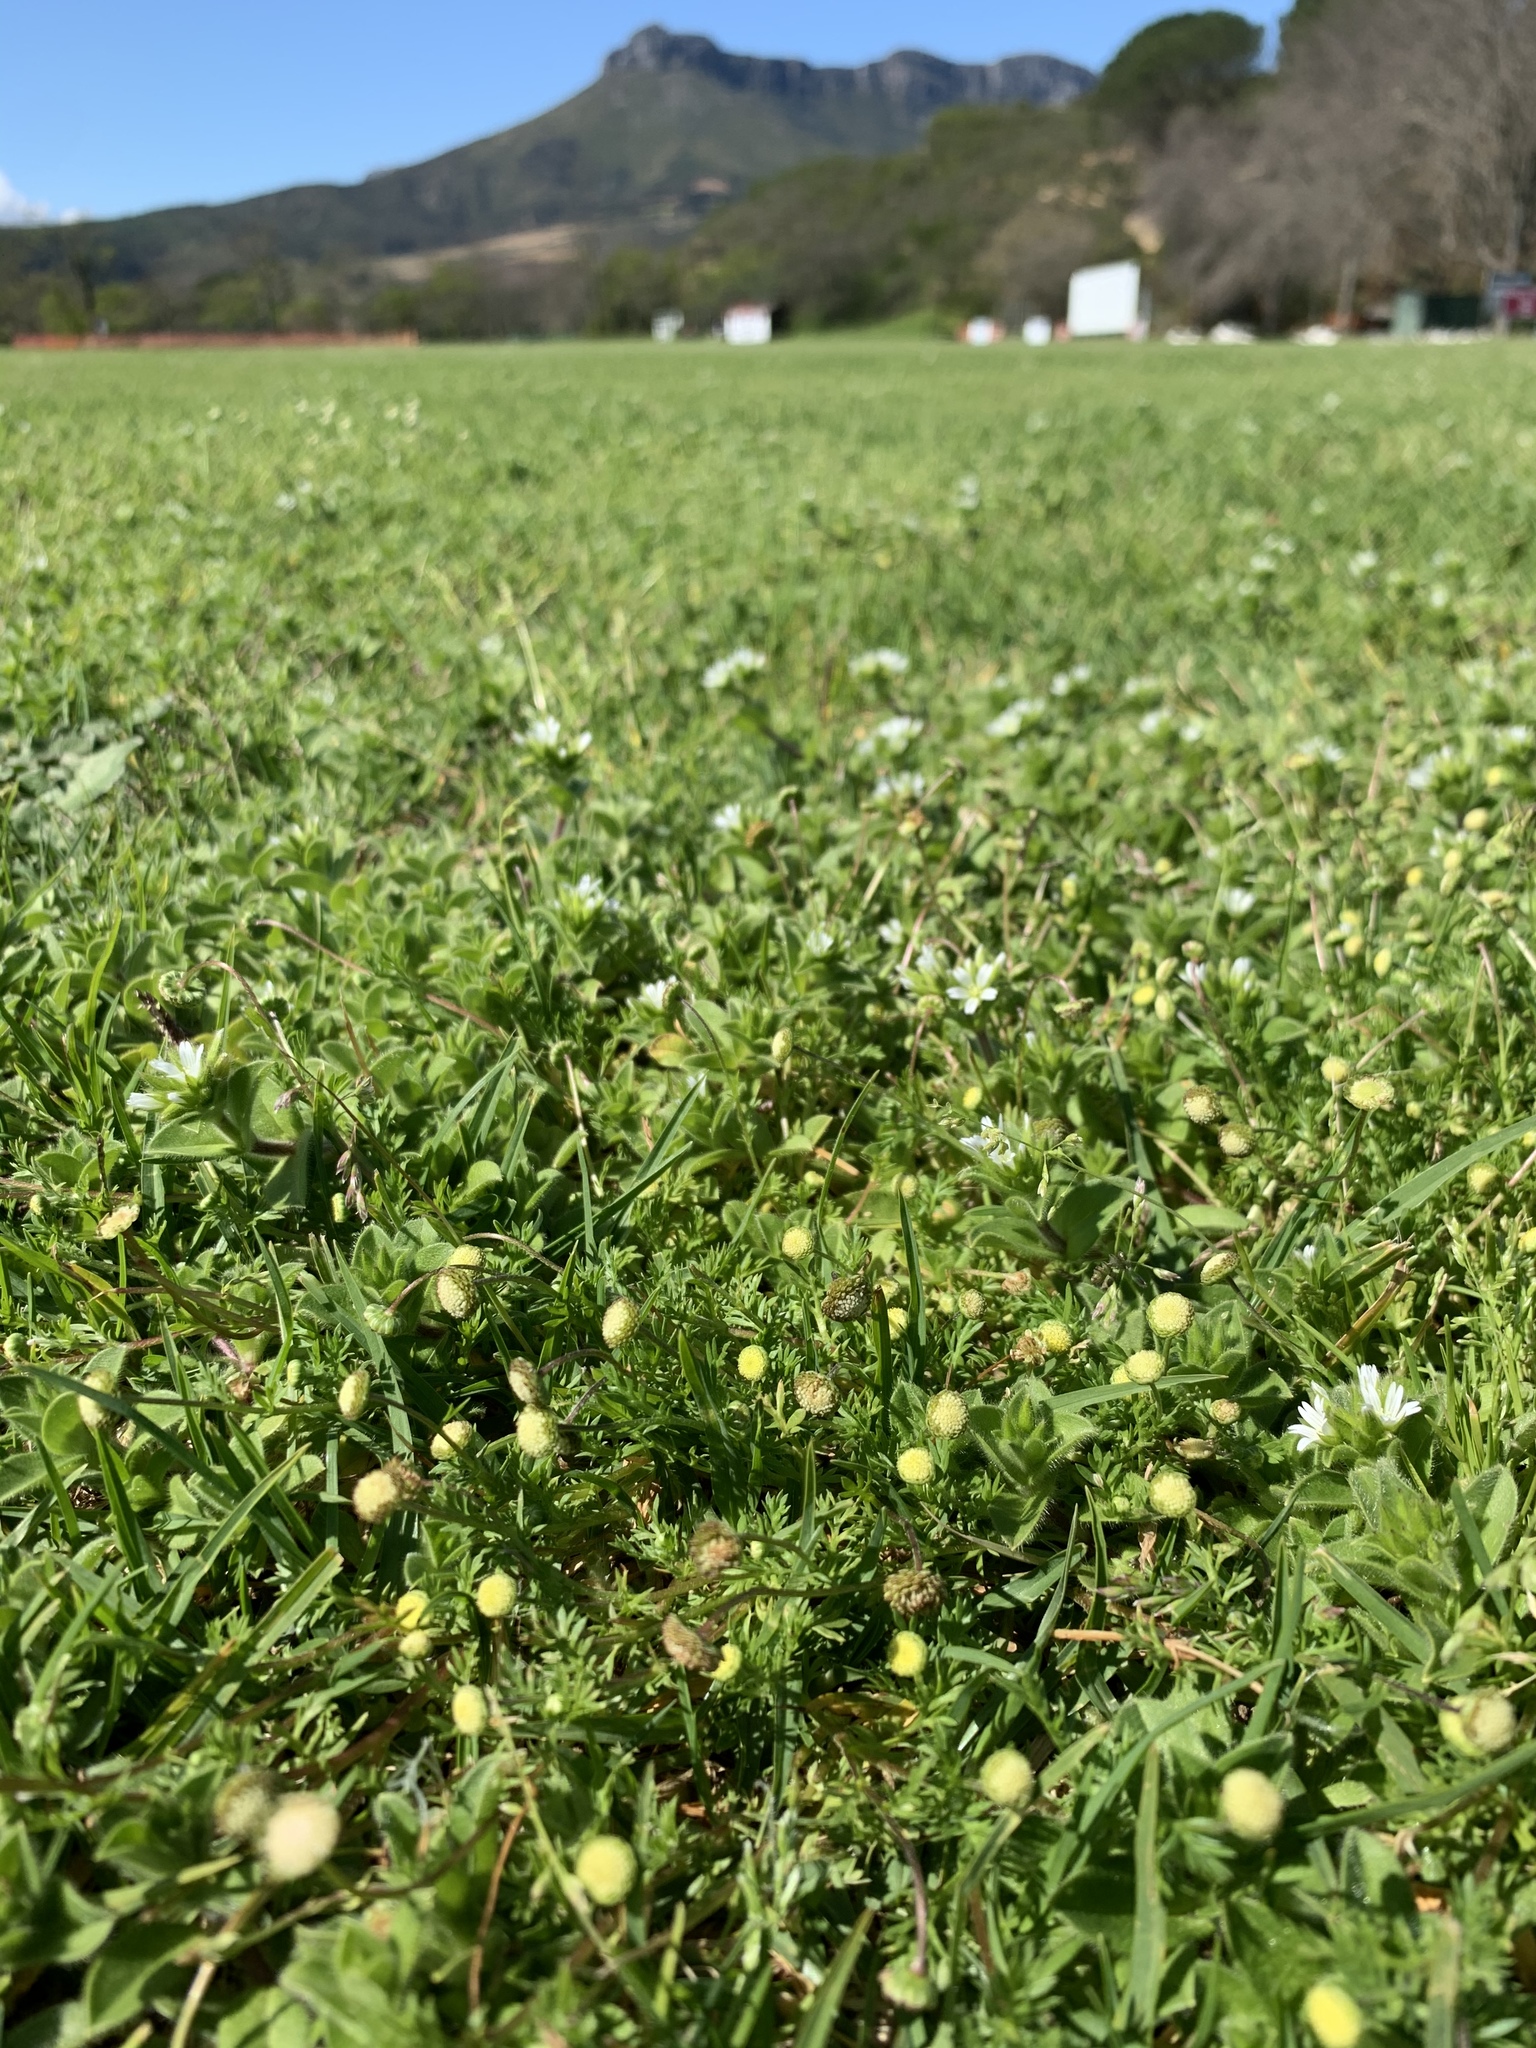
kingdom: Plantae
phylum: Tracheophyta
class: Magnoliopsida
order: Asterales
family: Asteraceae
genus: Cotula
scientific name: Cotula australis
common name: Australian waterbuttons
